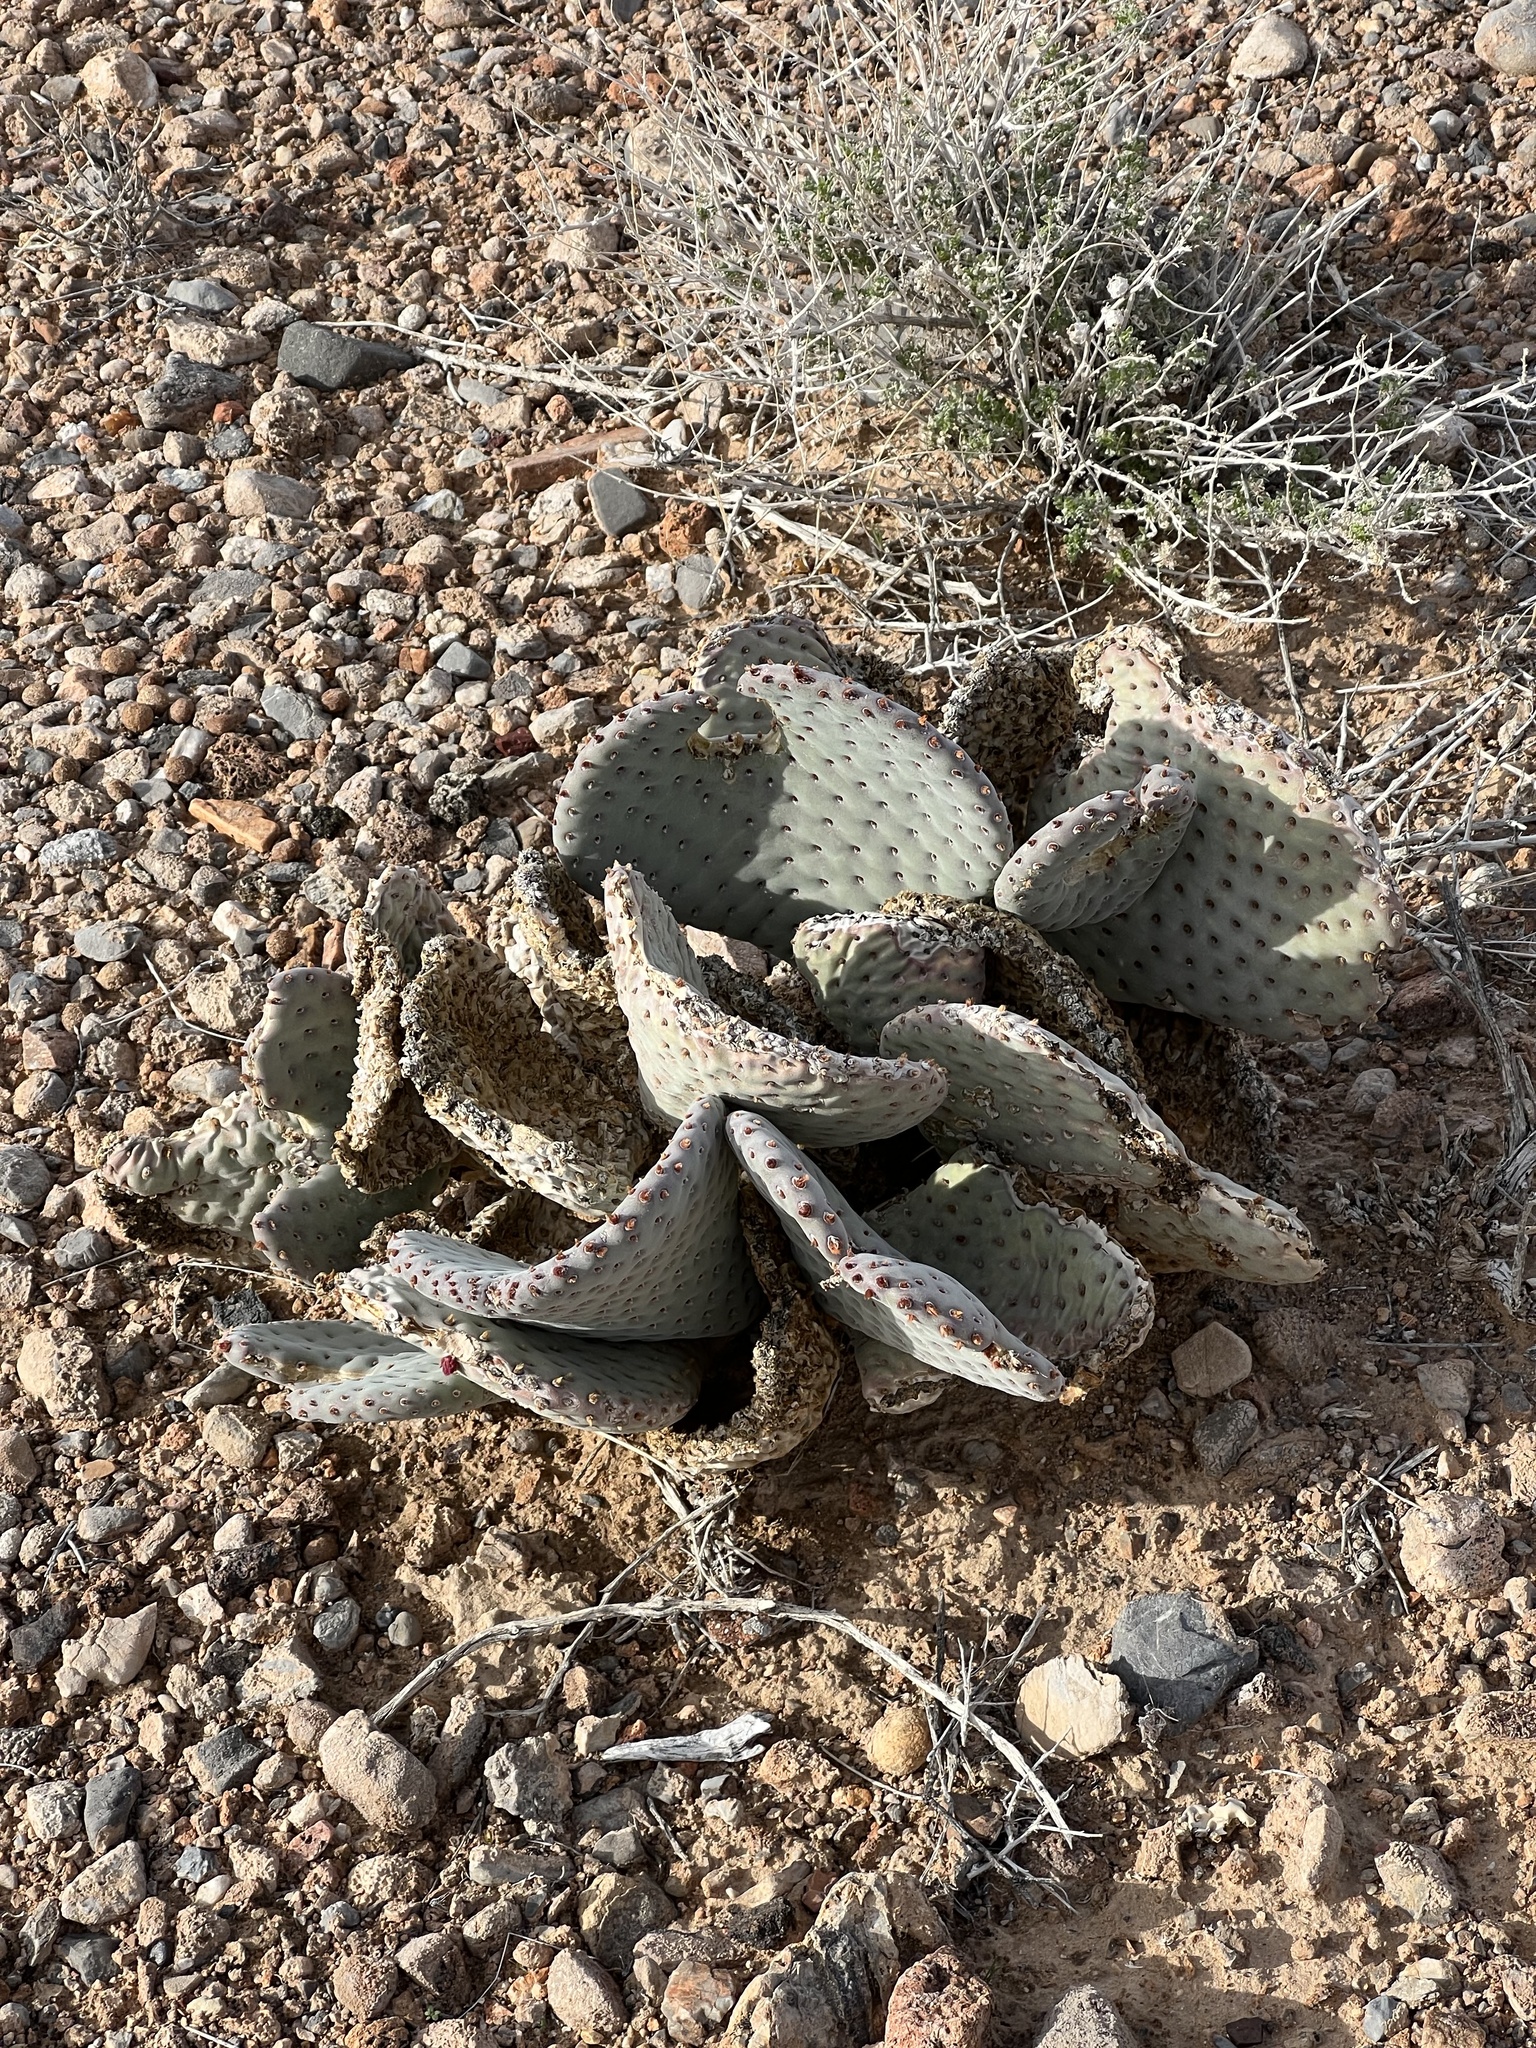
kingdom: Plantae
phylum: Tracheophyta
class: Magnoliopsida
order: Caryophyllales
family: Cactaceae
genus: Opuntia
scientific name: Opuntia basilaris
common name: Beavertail prickly-pear
